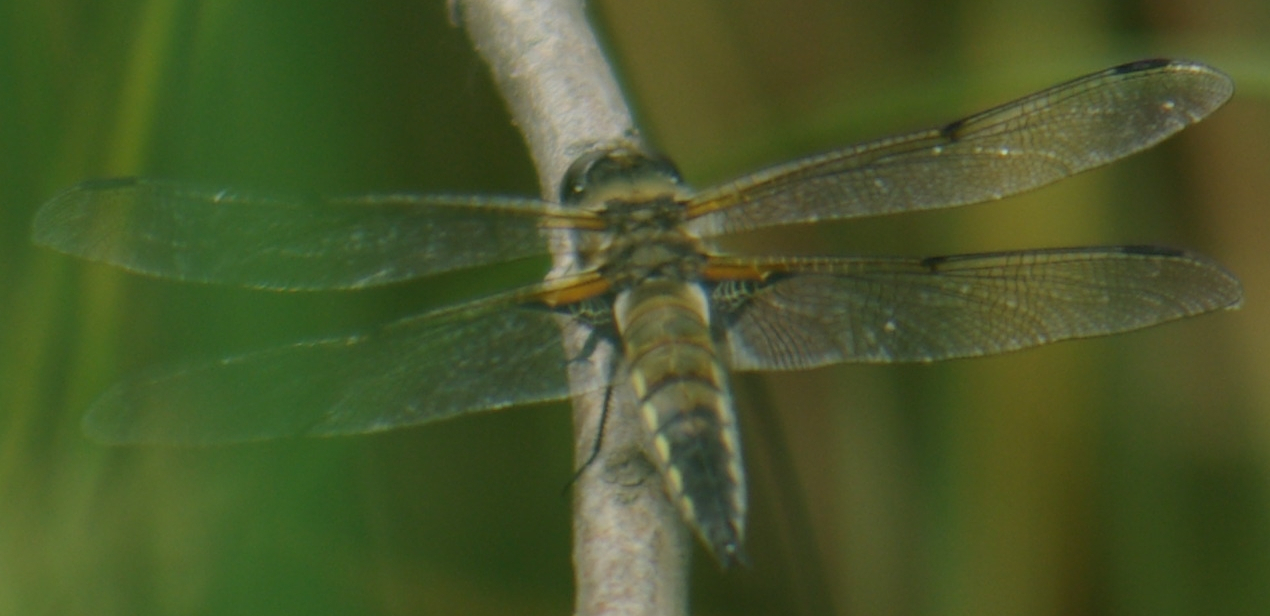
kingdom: Animalia
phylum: Arthropoda
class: Insecta
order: Odonata
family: Libellulidae
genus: Libellula
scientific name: Libellula quadrimaculata
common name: Four-spotted chaser
